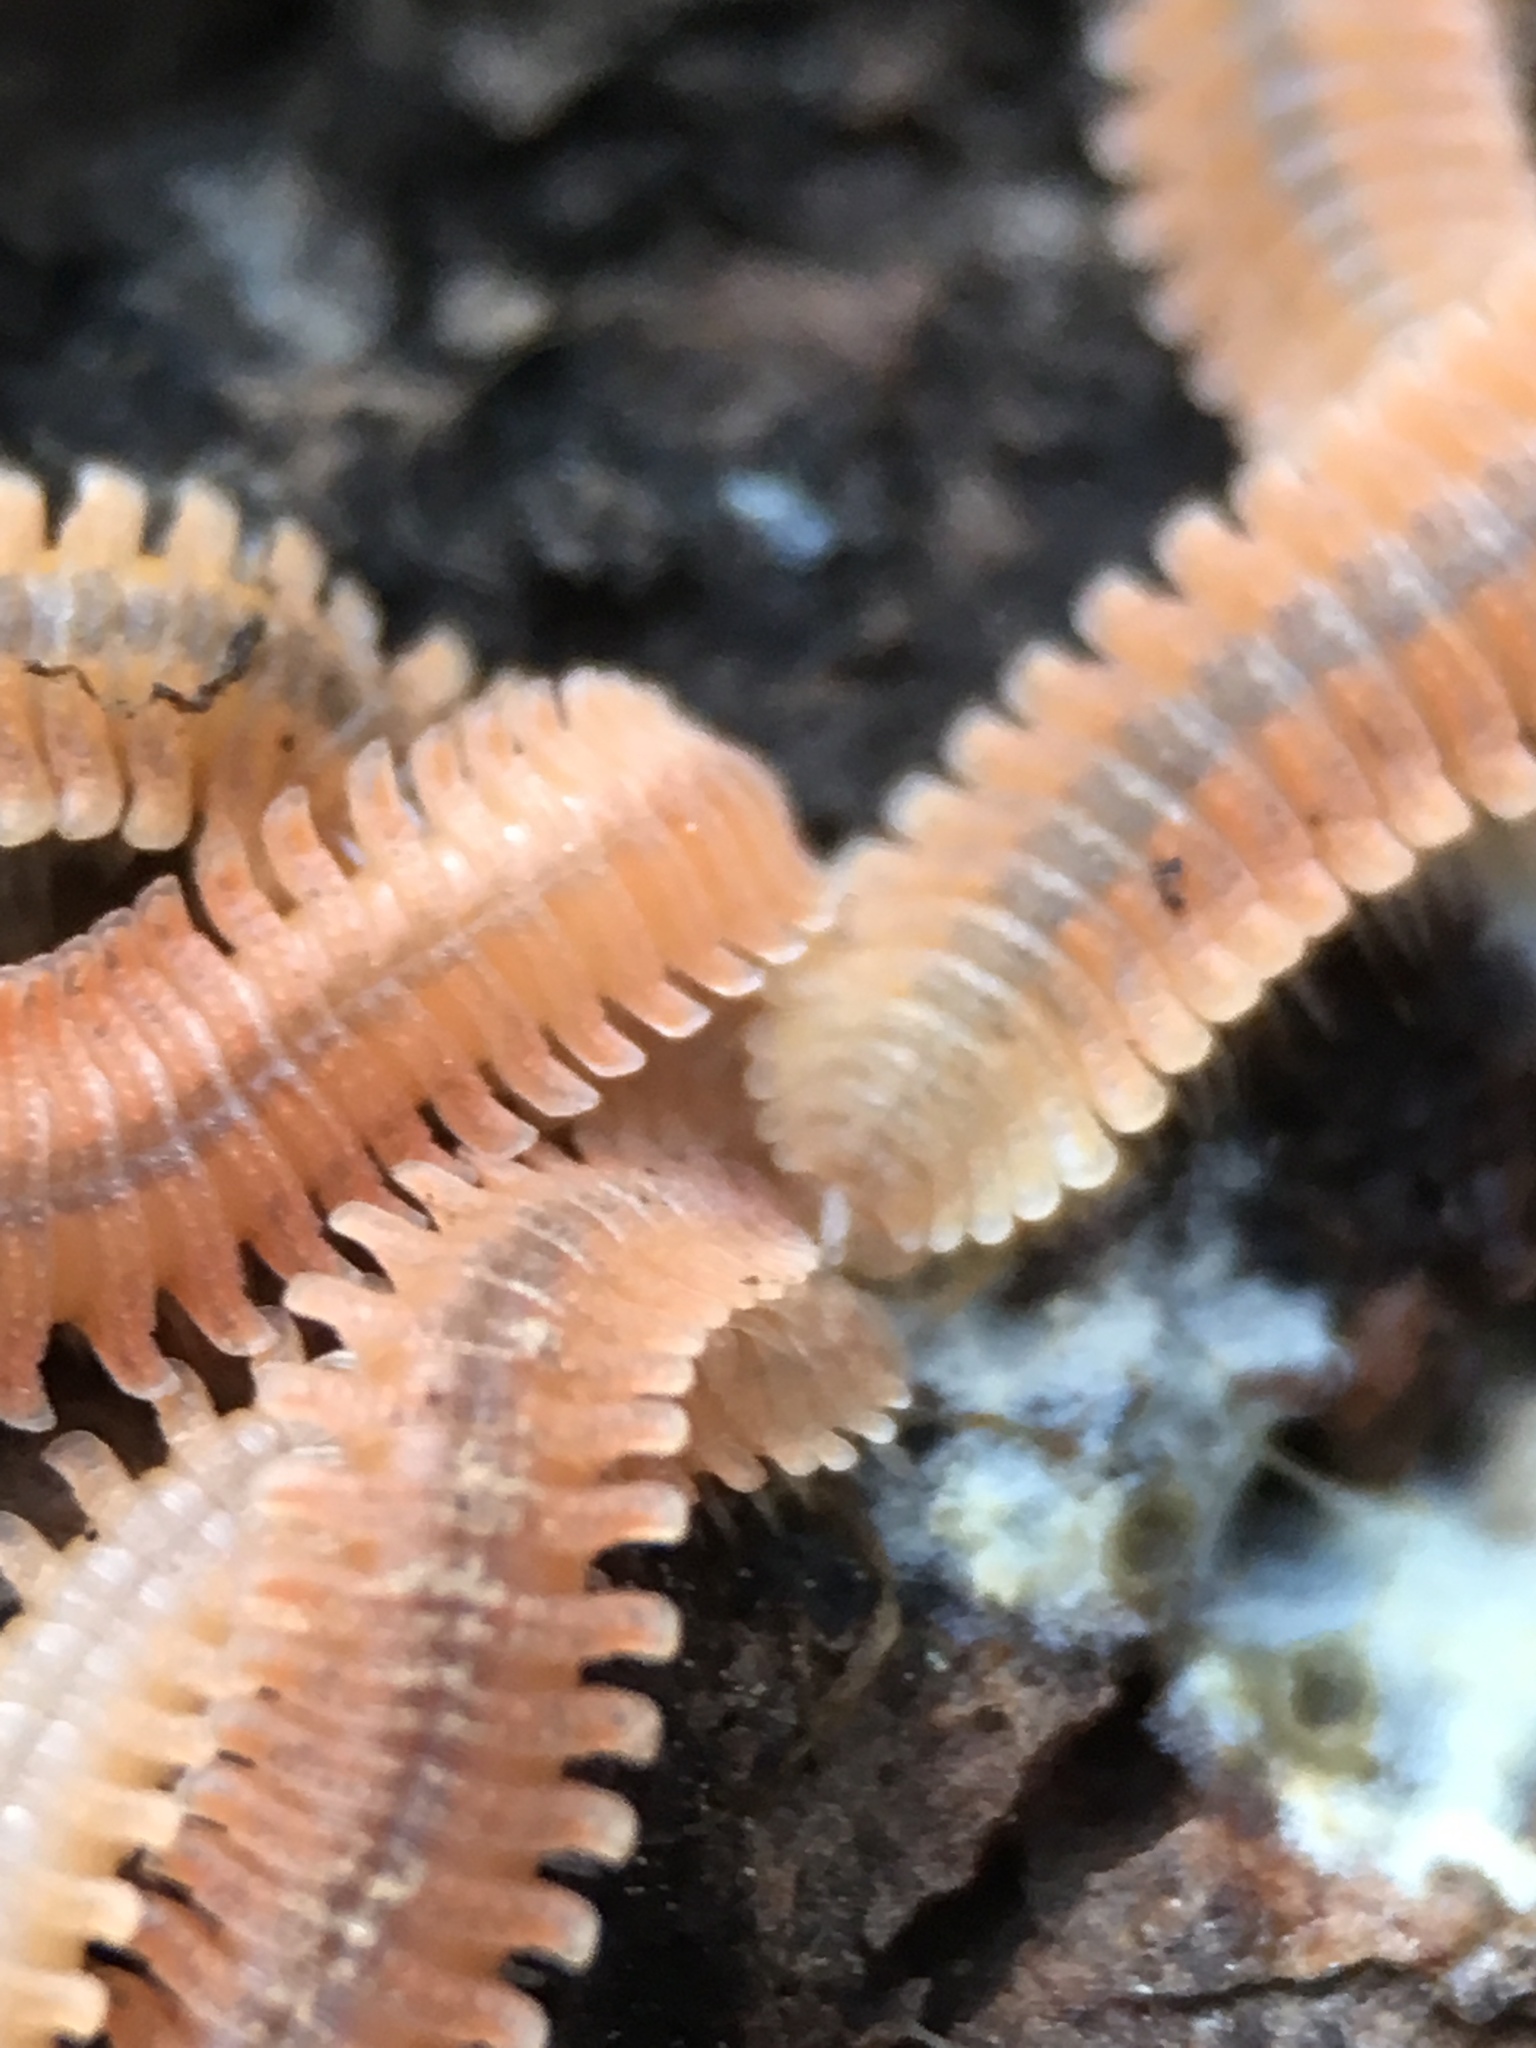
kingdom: Animalia
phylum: Arthropoda
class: Diplopoda
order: Platydesmida
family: Andrognathidae
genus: Brachycybe
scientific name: Brachycybe producta
